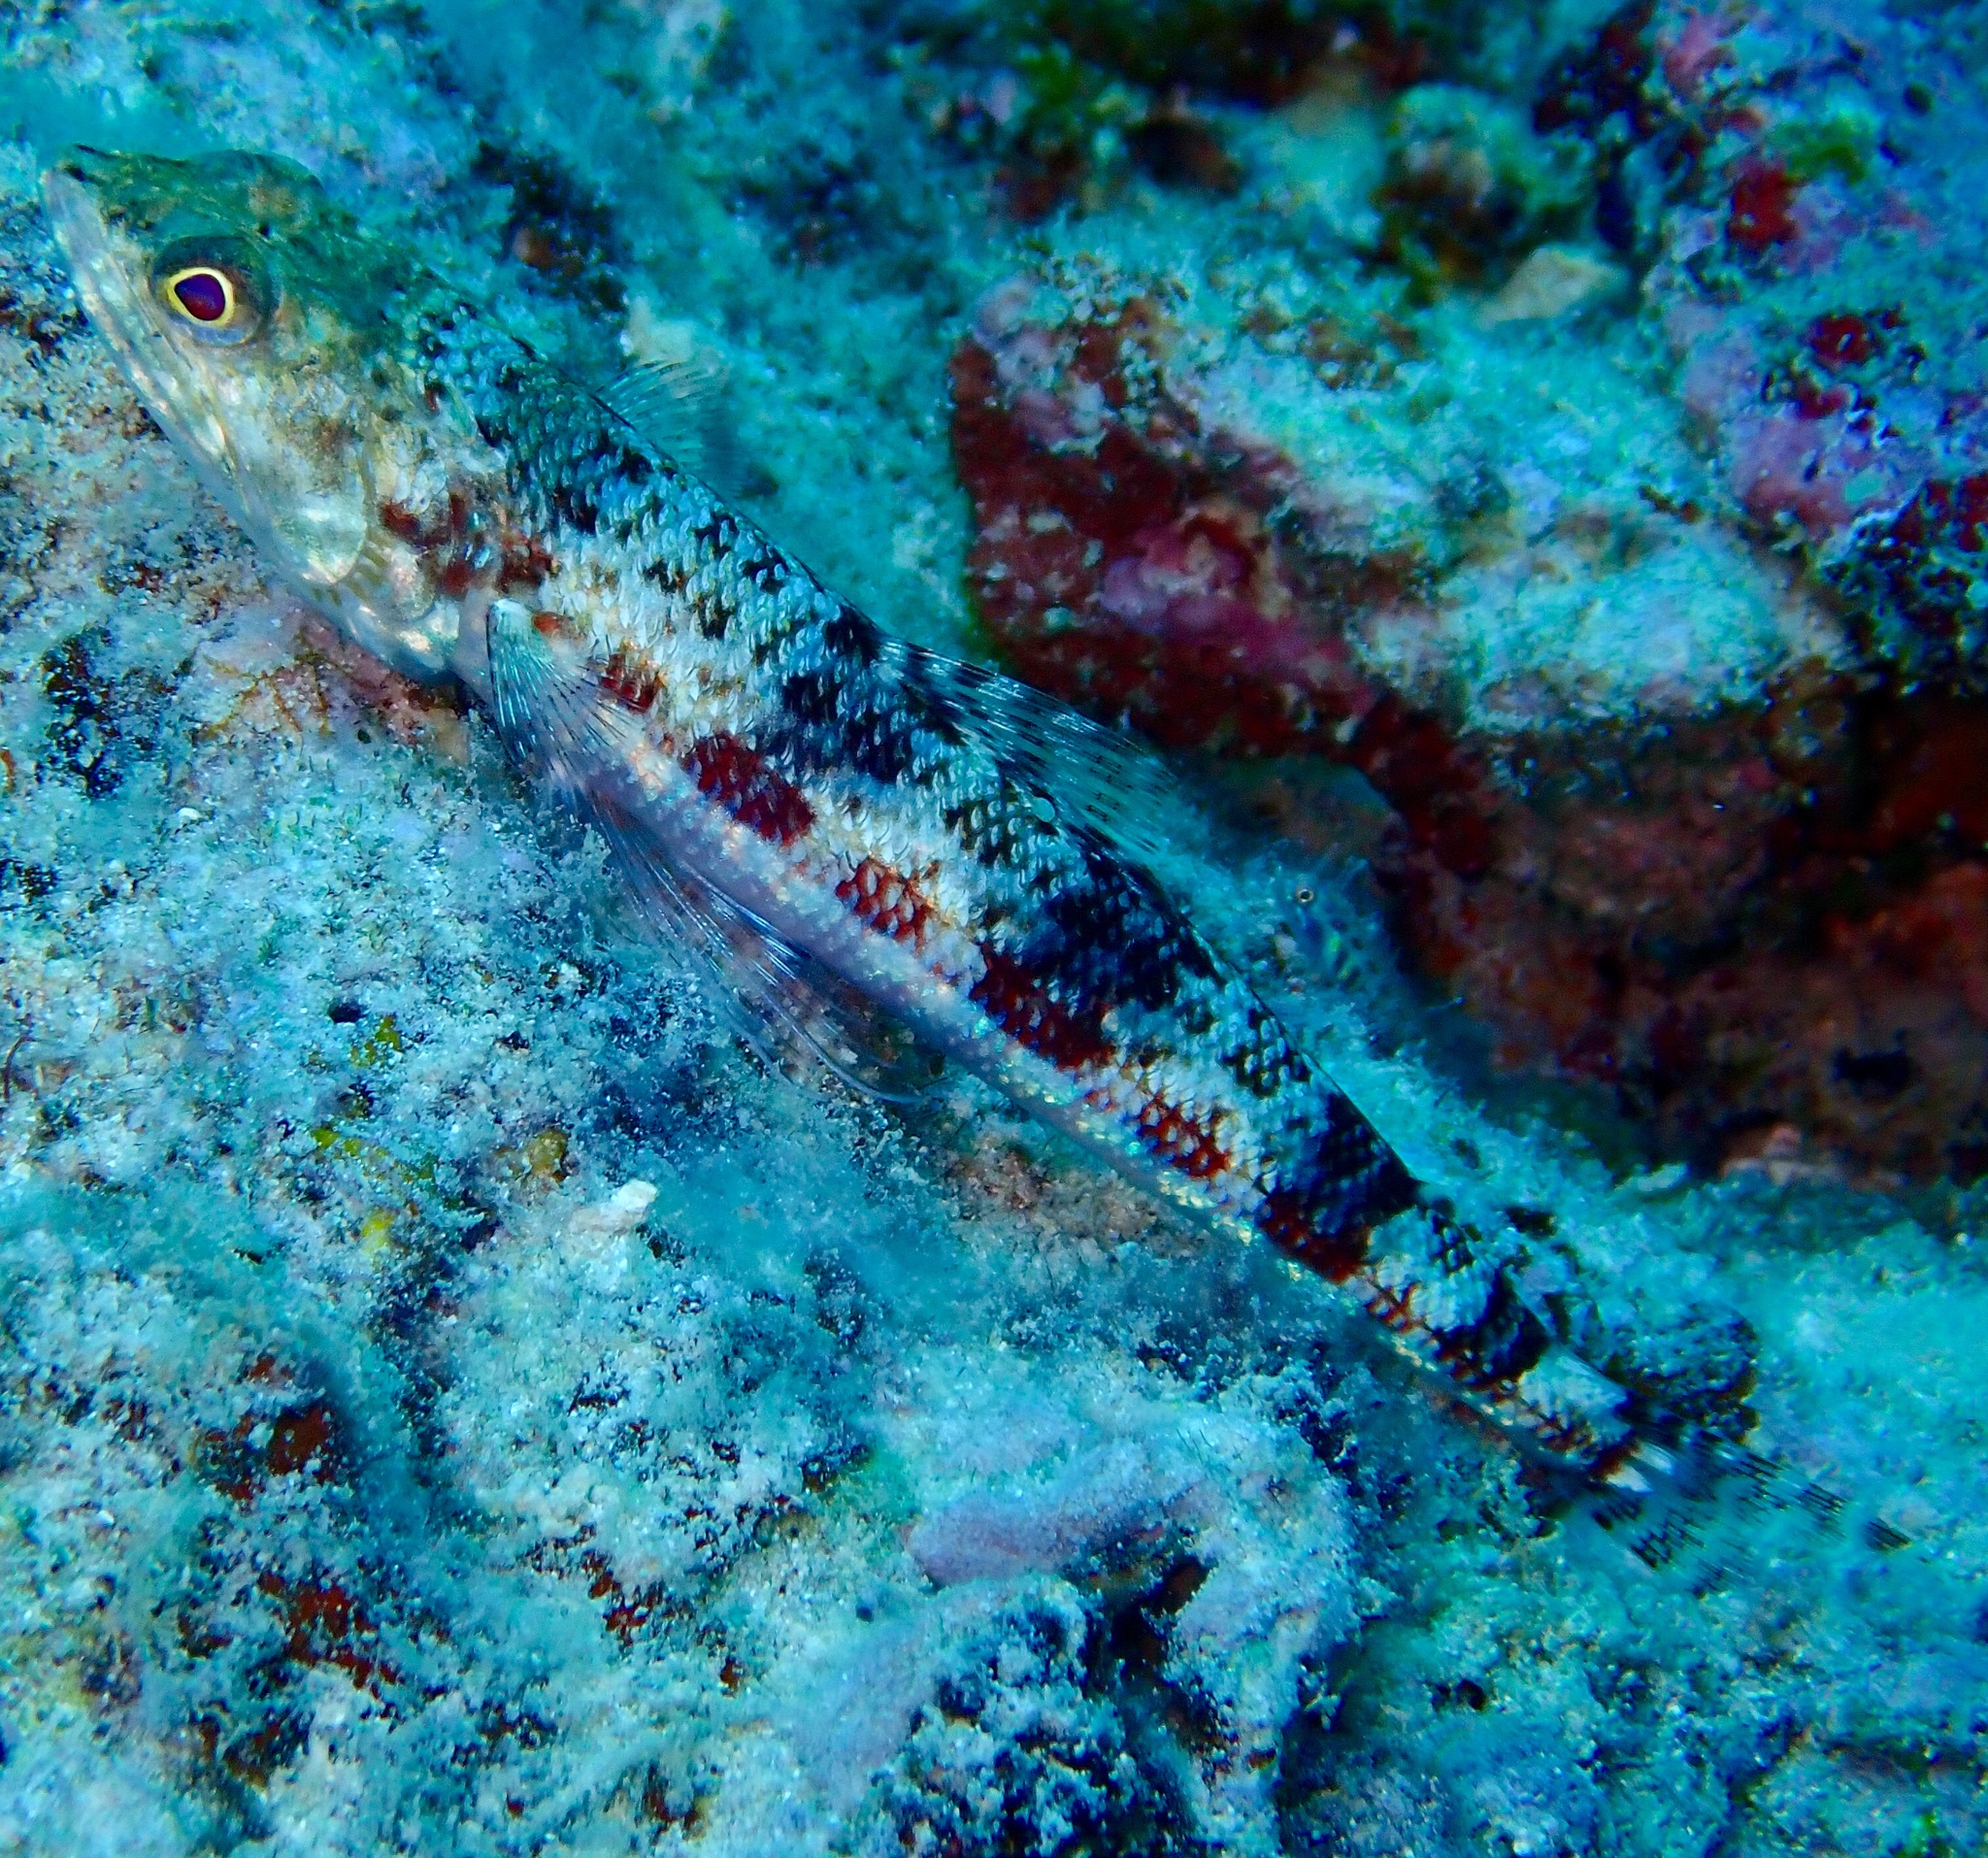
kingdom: Animalia
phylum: Chordata
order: Aulopiformes
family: Synodontidae
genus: Synodus
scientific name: Synodus binotatus
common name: Twospot lizardfish
